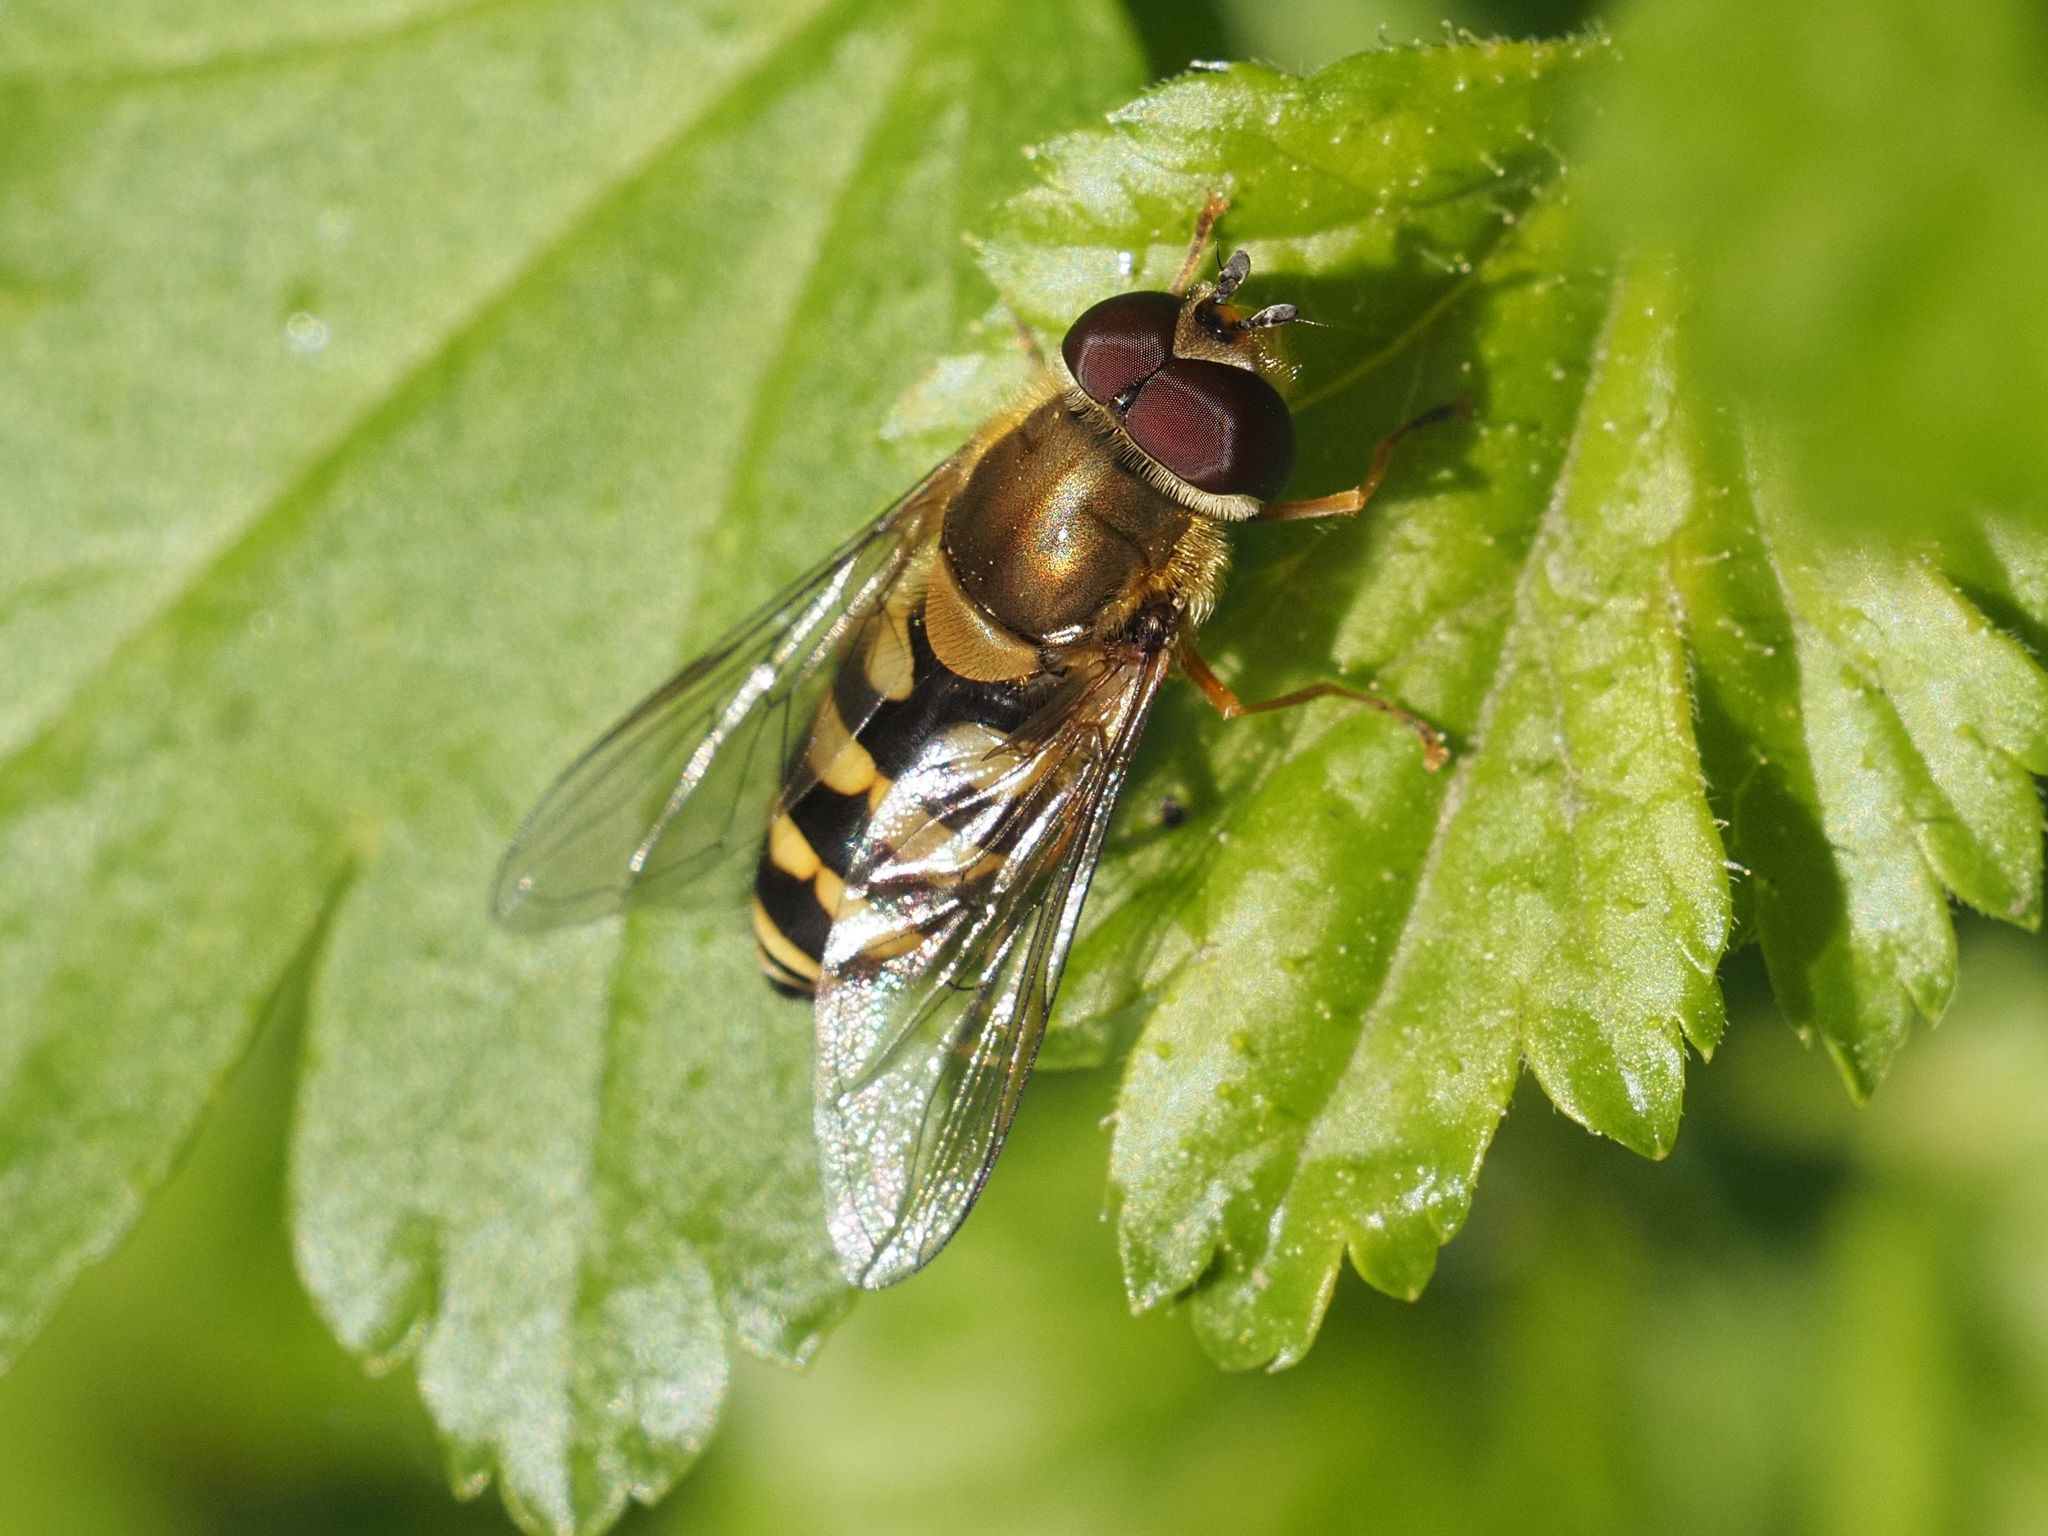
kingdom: Animalia
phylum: Arthropoda
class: Insecta
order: Diptera
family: Syrphidae
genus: Syrphus
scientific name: Syrphus
